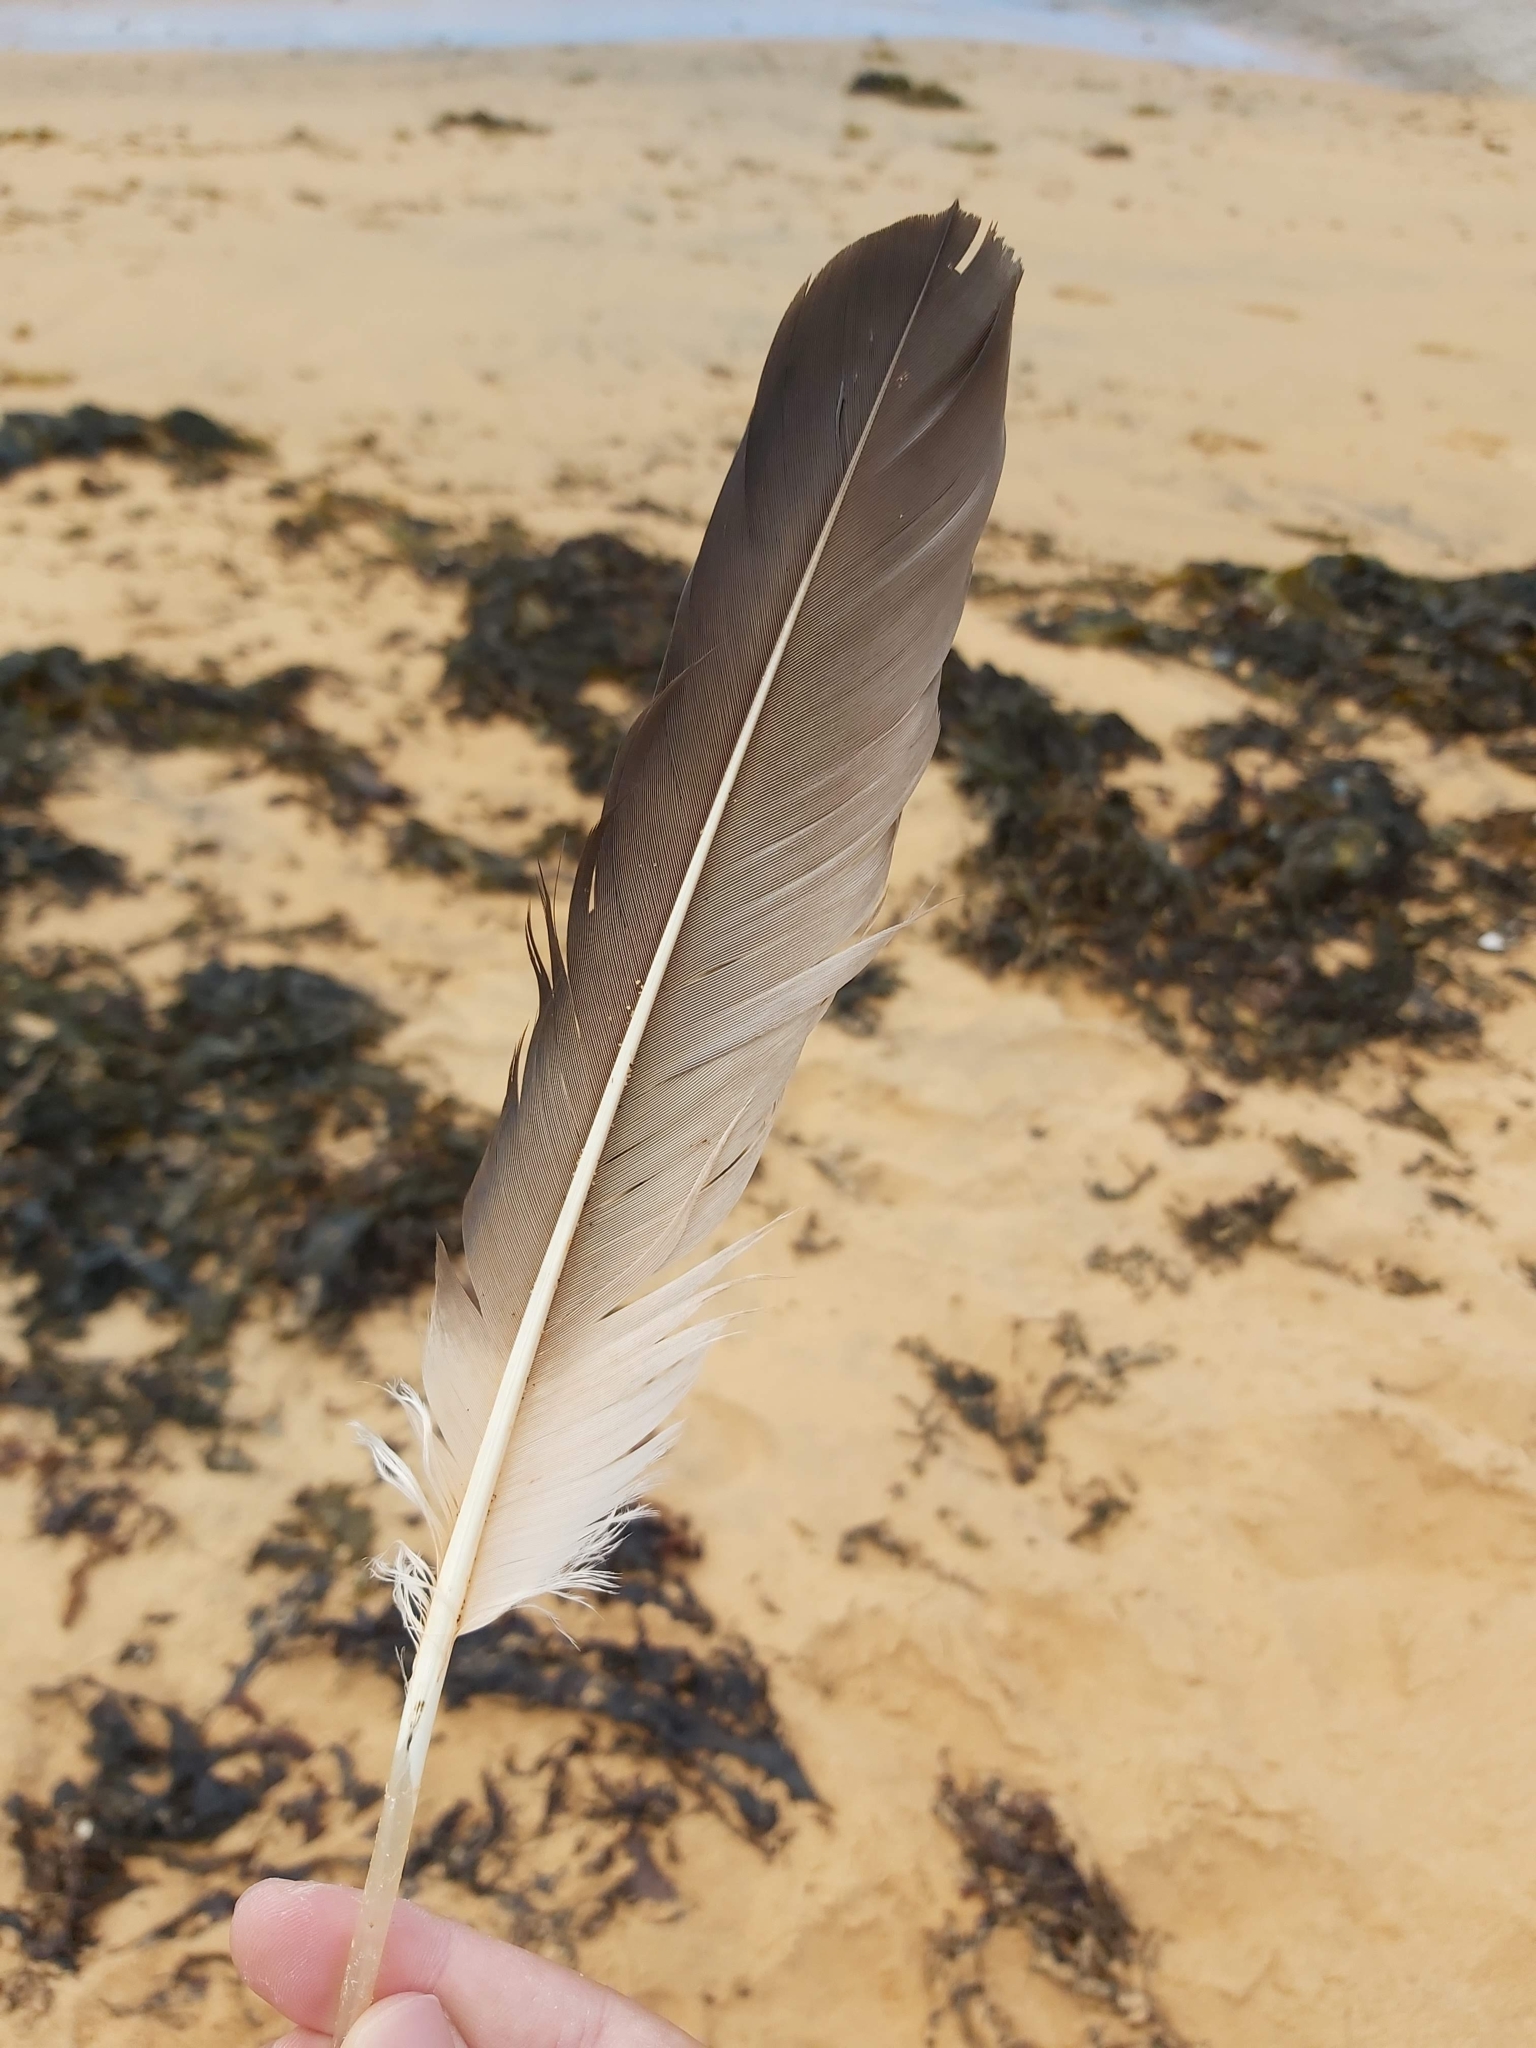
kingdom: Animalia
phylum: Chordata
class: Aves
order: Suliformes
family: Sulidae
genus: Morus
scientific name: Morus serrator
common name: Australasian gannet
